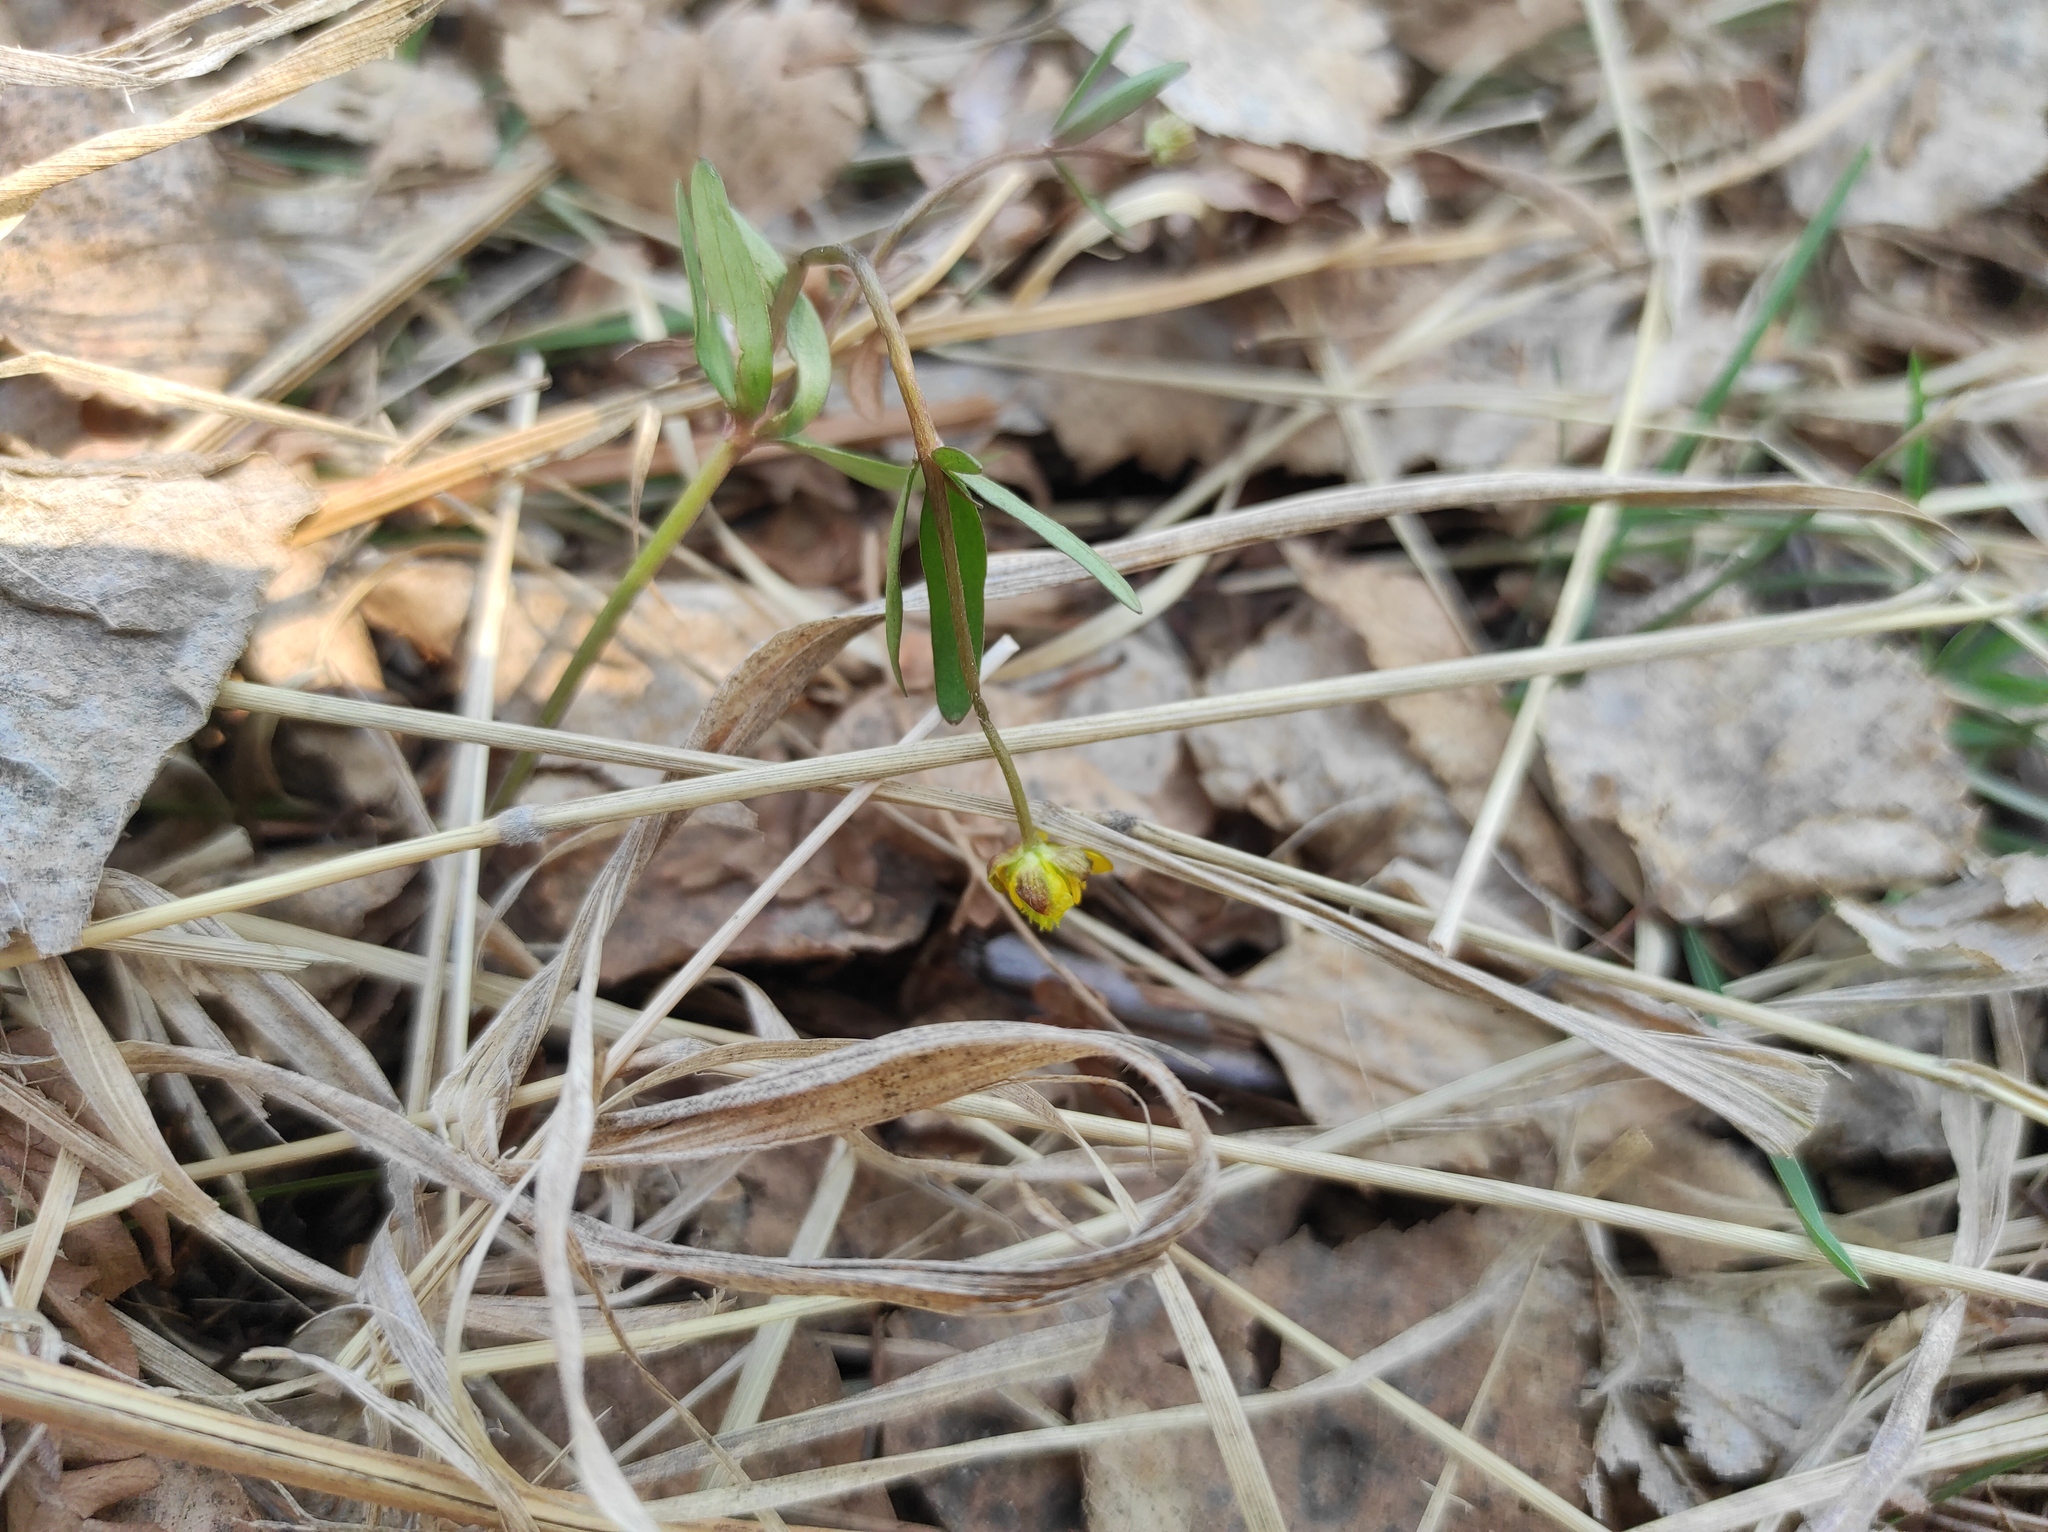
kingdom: Plantae
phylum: Tracheophyta
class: Magnoliopsida
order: Ranunculales
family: Ranunculaceae
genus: Ranunculus
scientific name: Ranunculus monophyllus
